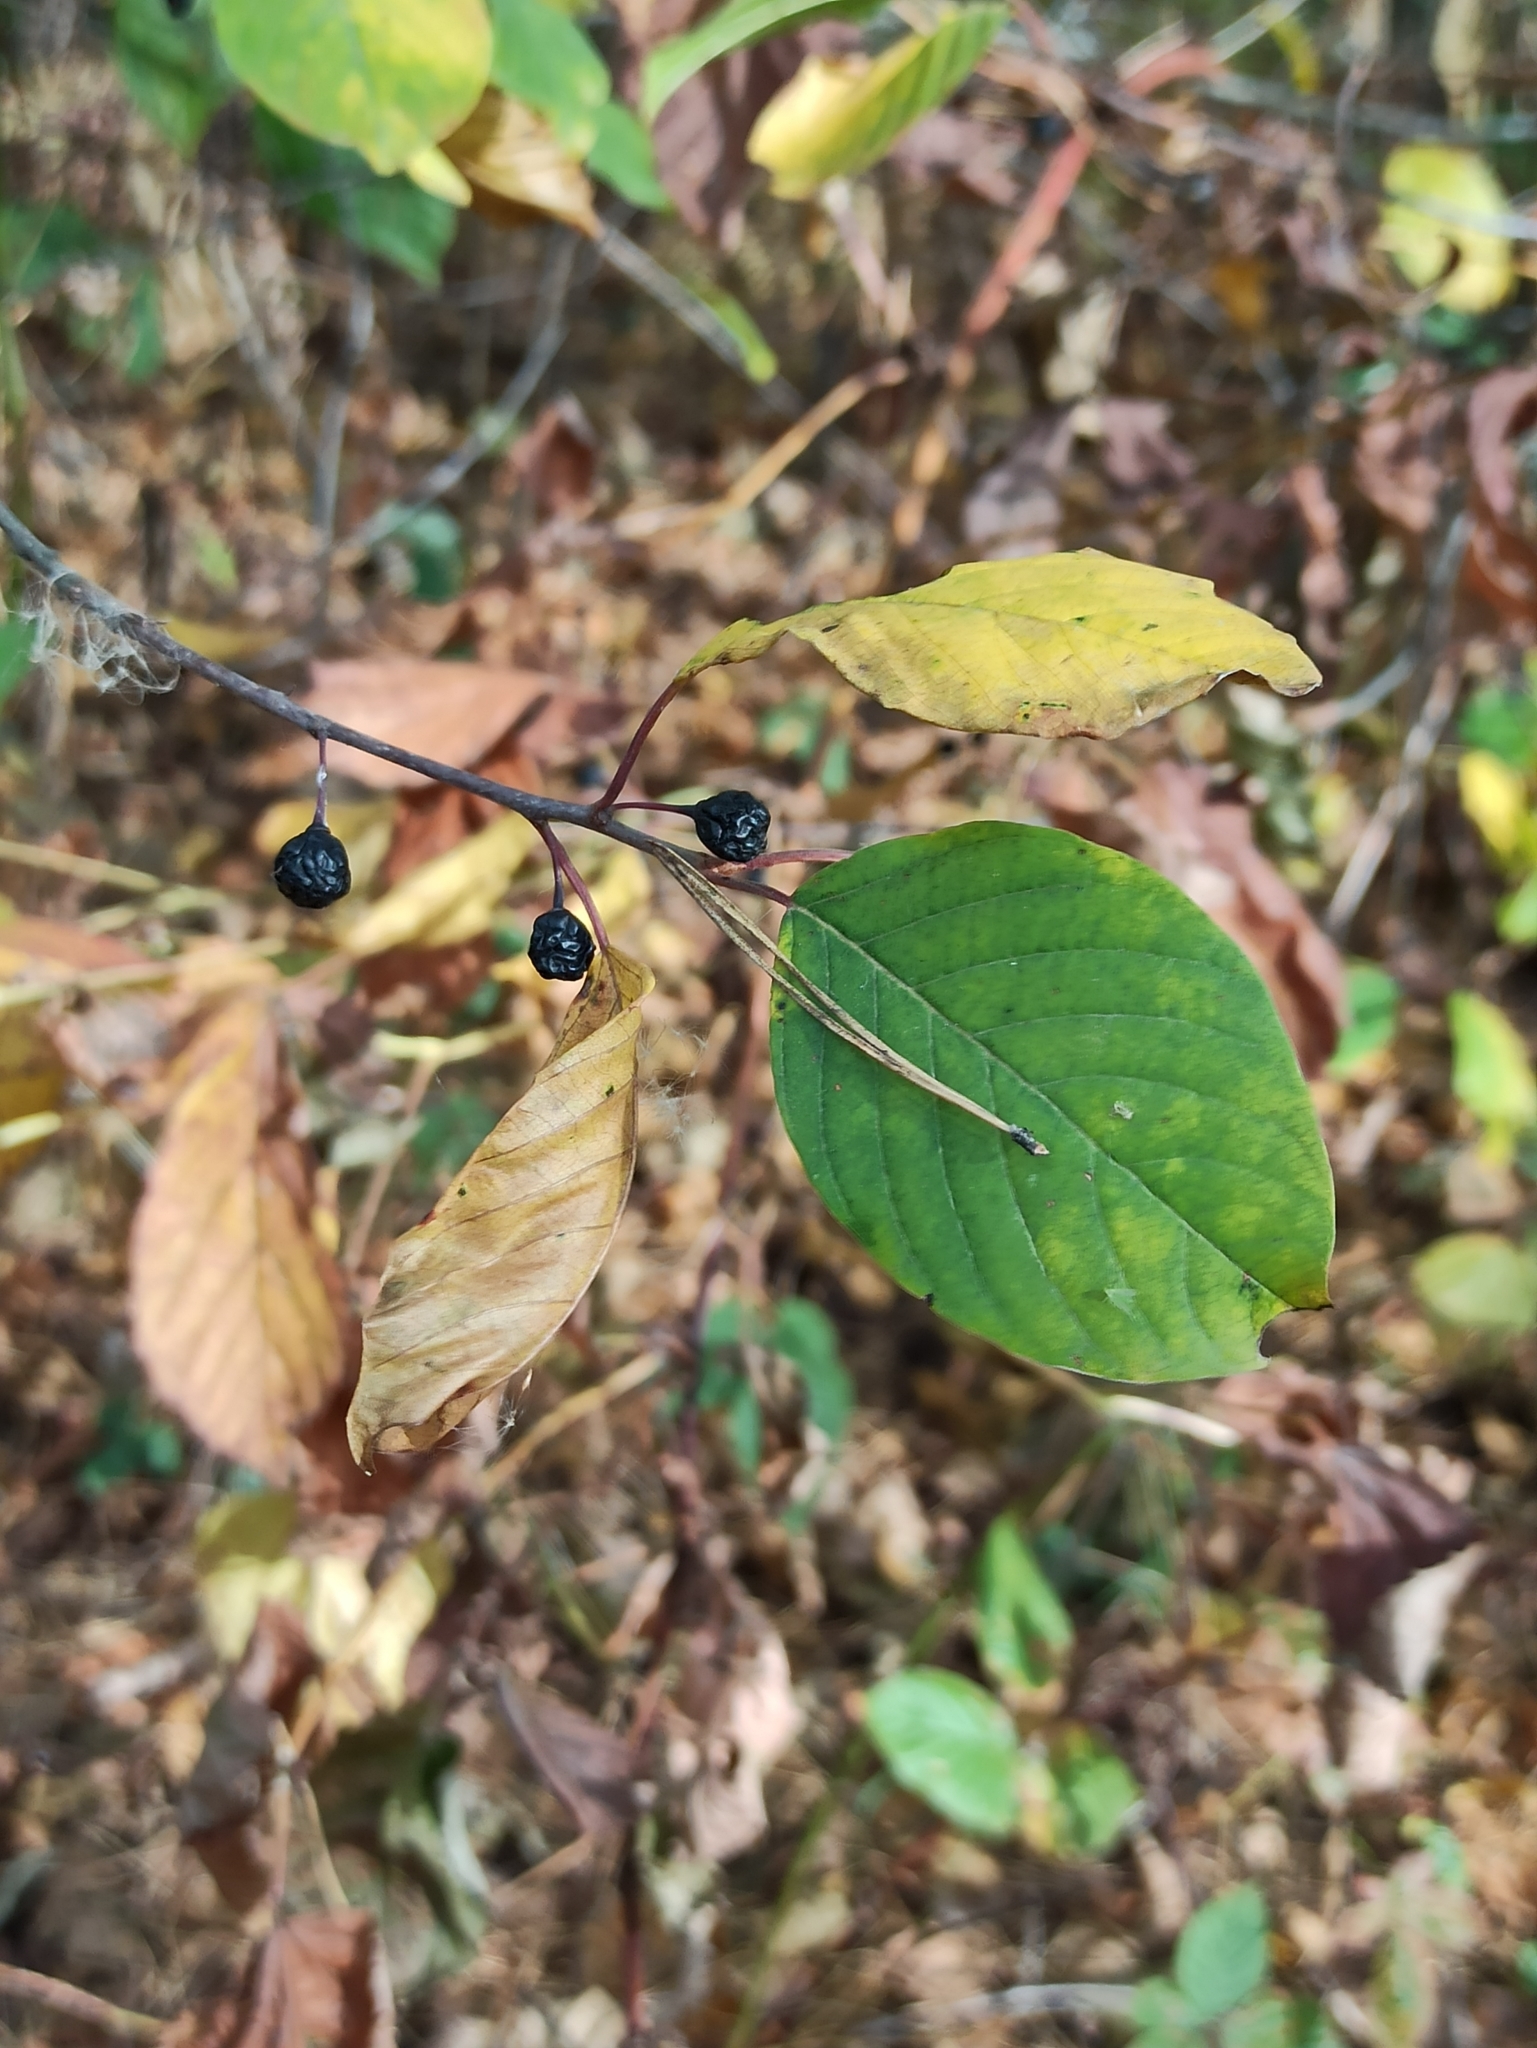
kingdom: Plantae
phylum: Tracheophyta
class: Magnoliopsida
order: Rosales
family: Rhamnaceae
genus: Frangula
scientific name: Frangula alnus
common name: Alder buckthorn
